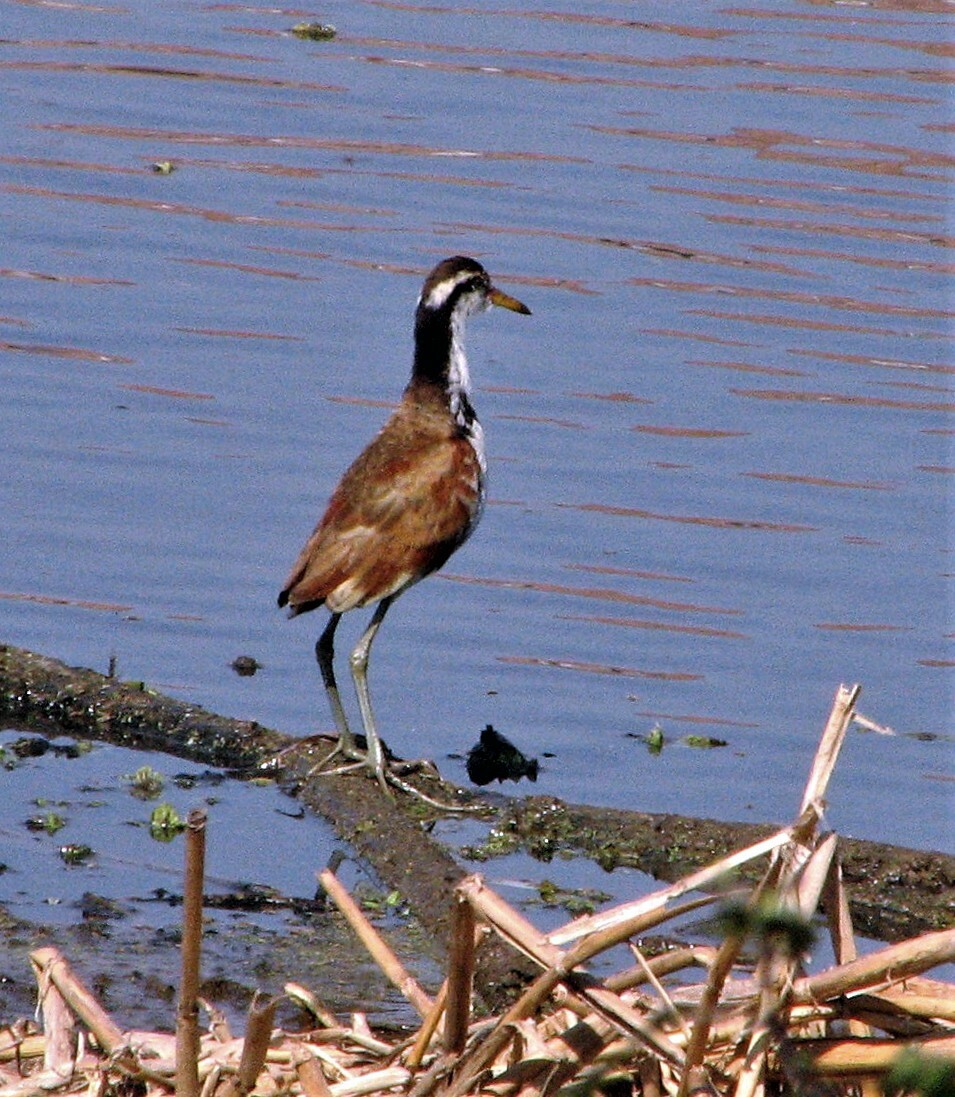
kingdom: Animalia
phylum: Chordata
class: Aves
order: Charadriiformes
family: Jacanidae
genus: Jacana
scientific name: Jacana jacana
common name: Wattled jacana
